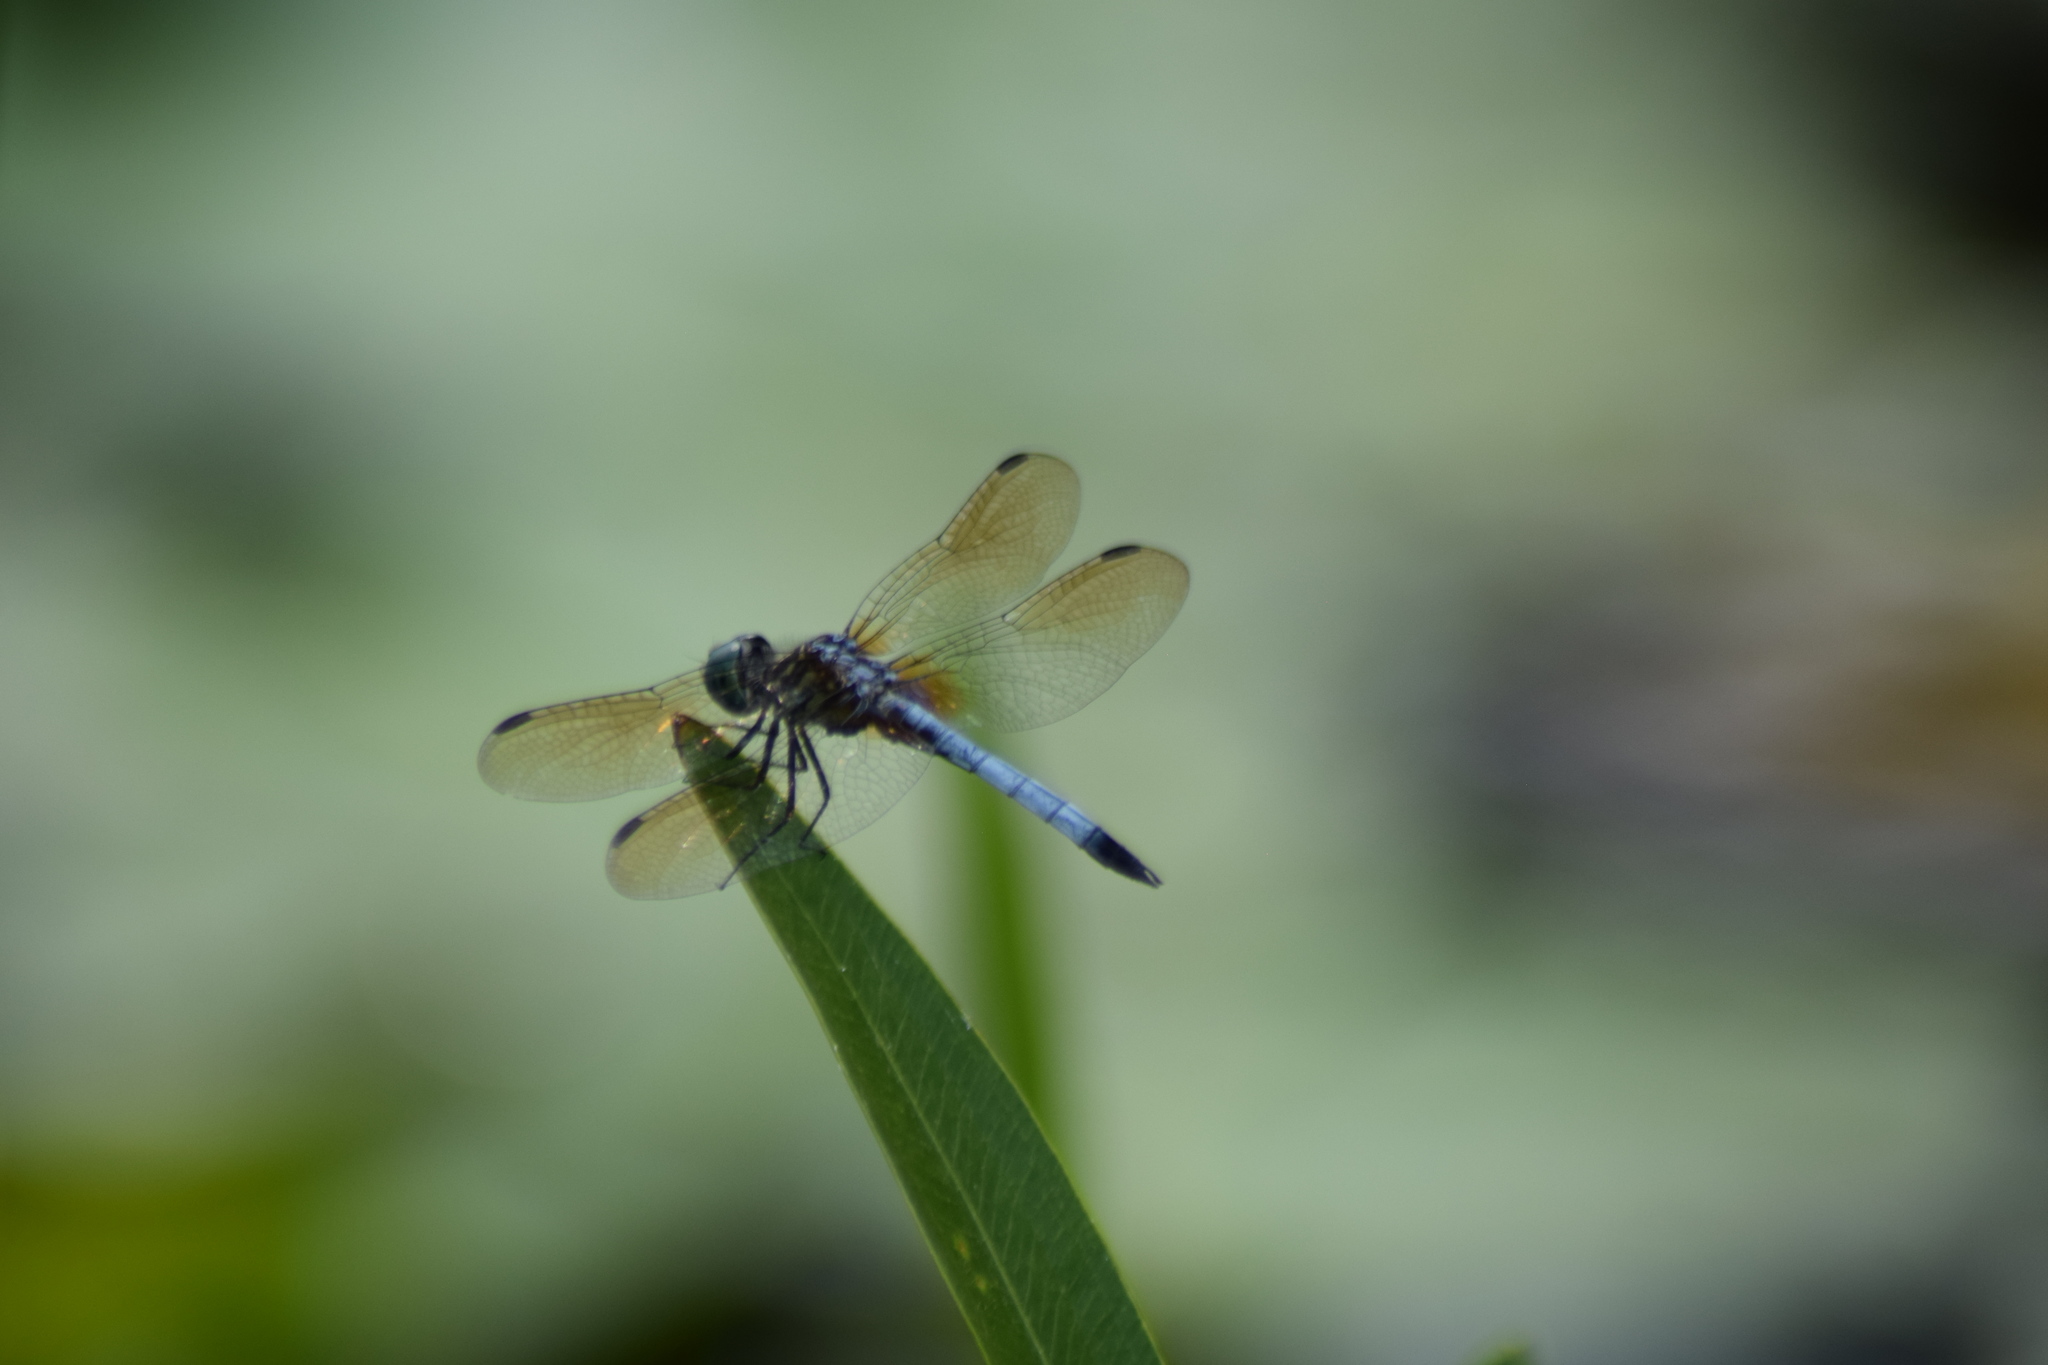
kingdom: Animalia
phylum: Arthropoda
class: Insecta
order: Odonata
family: Libellulidae
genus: Pachydiplax
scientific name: Pachydiplax longipennis
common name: Blue dasher
